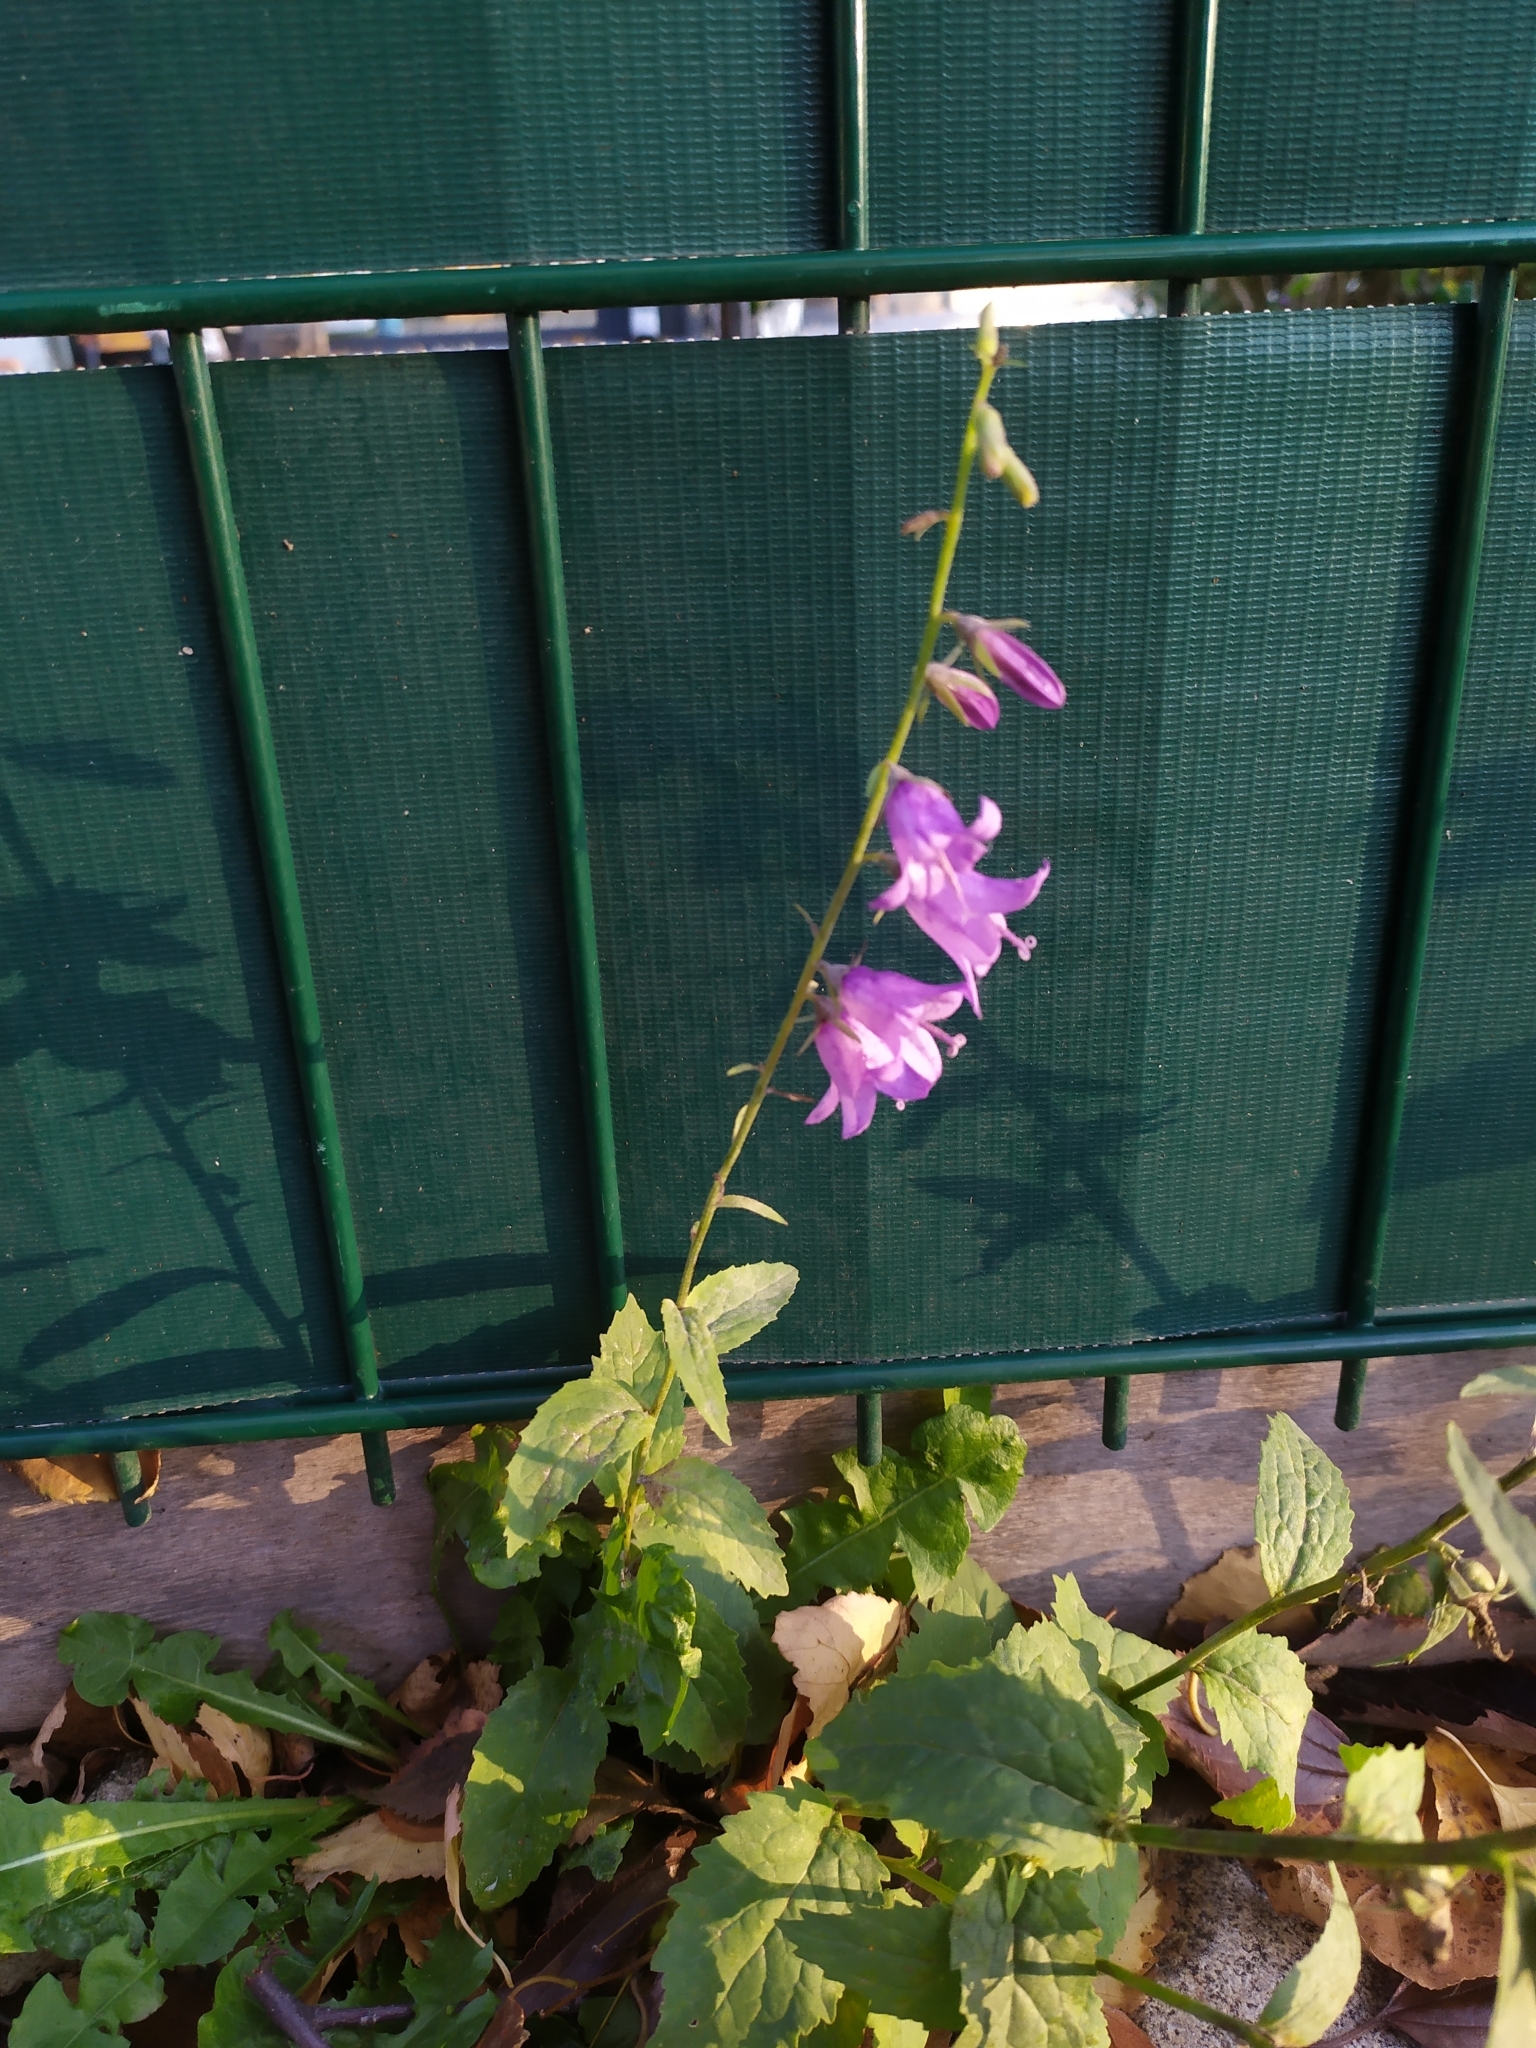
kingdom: Plantae
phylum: Tracheophyta
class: Magnoliopsida
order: Asterales
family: Campanulaceae
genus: Campanula
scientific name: Campanula rapunculoides
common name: Creeping bellflower
